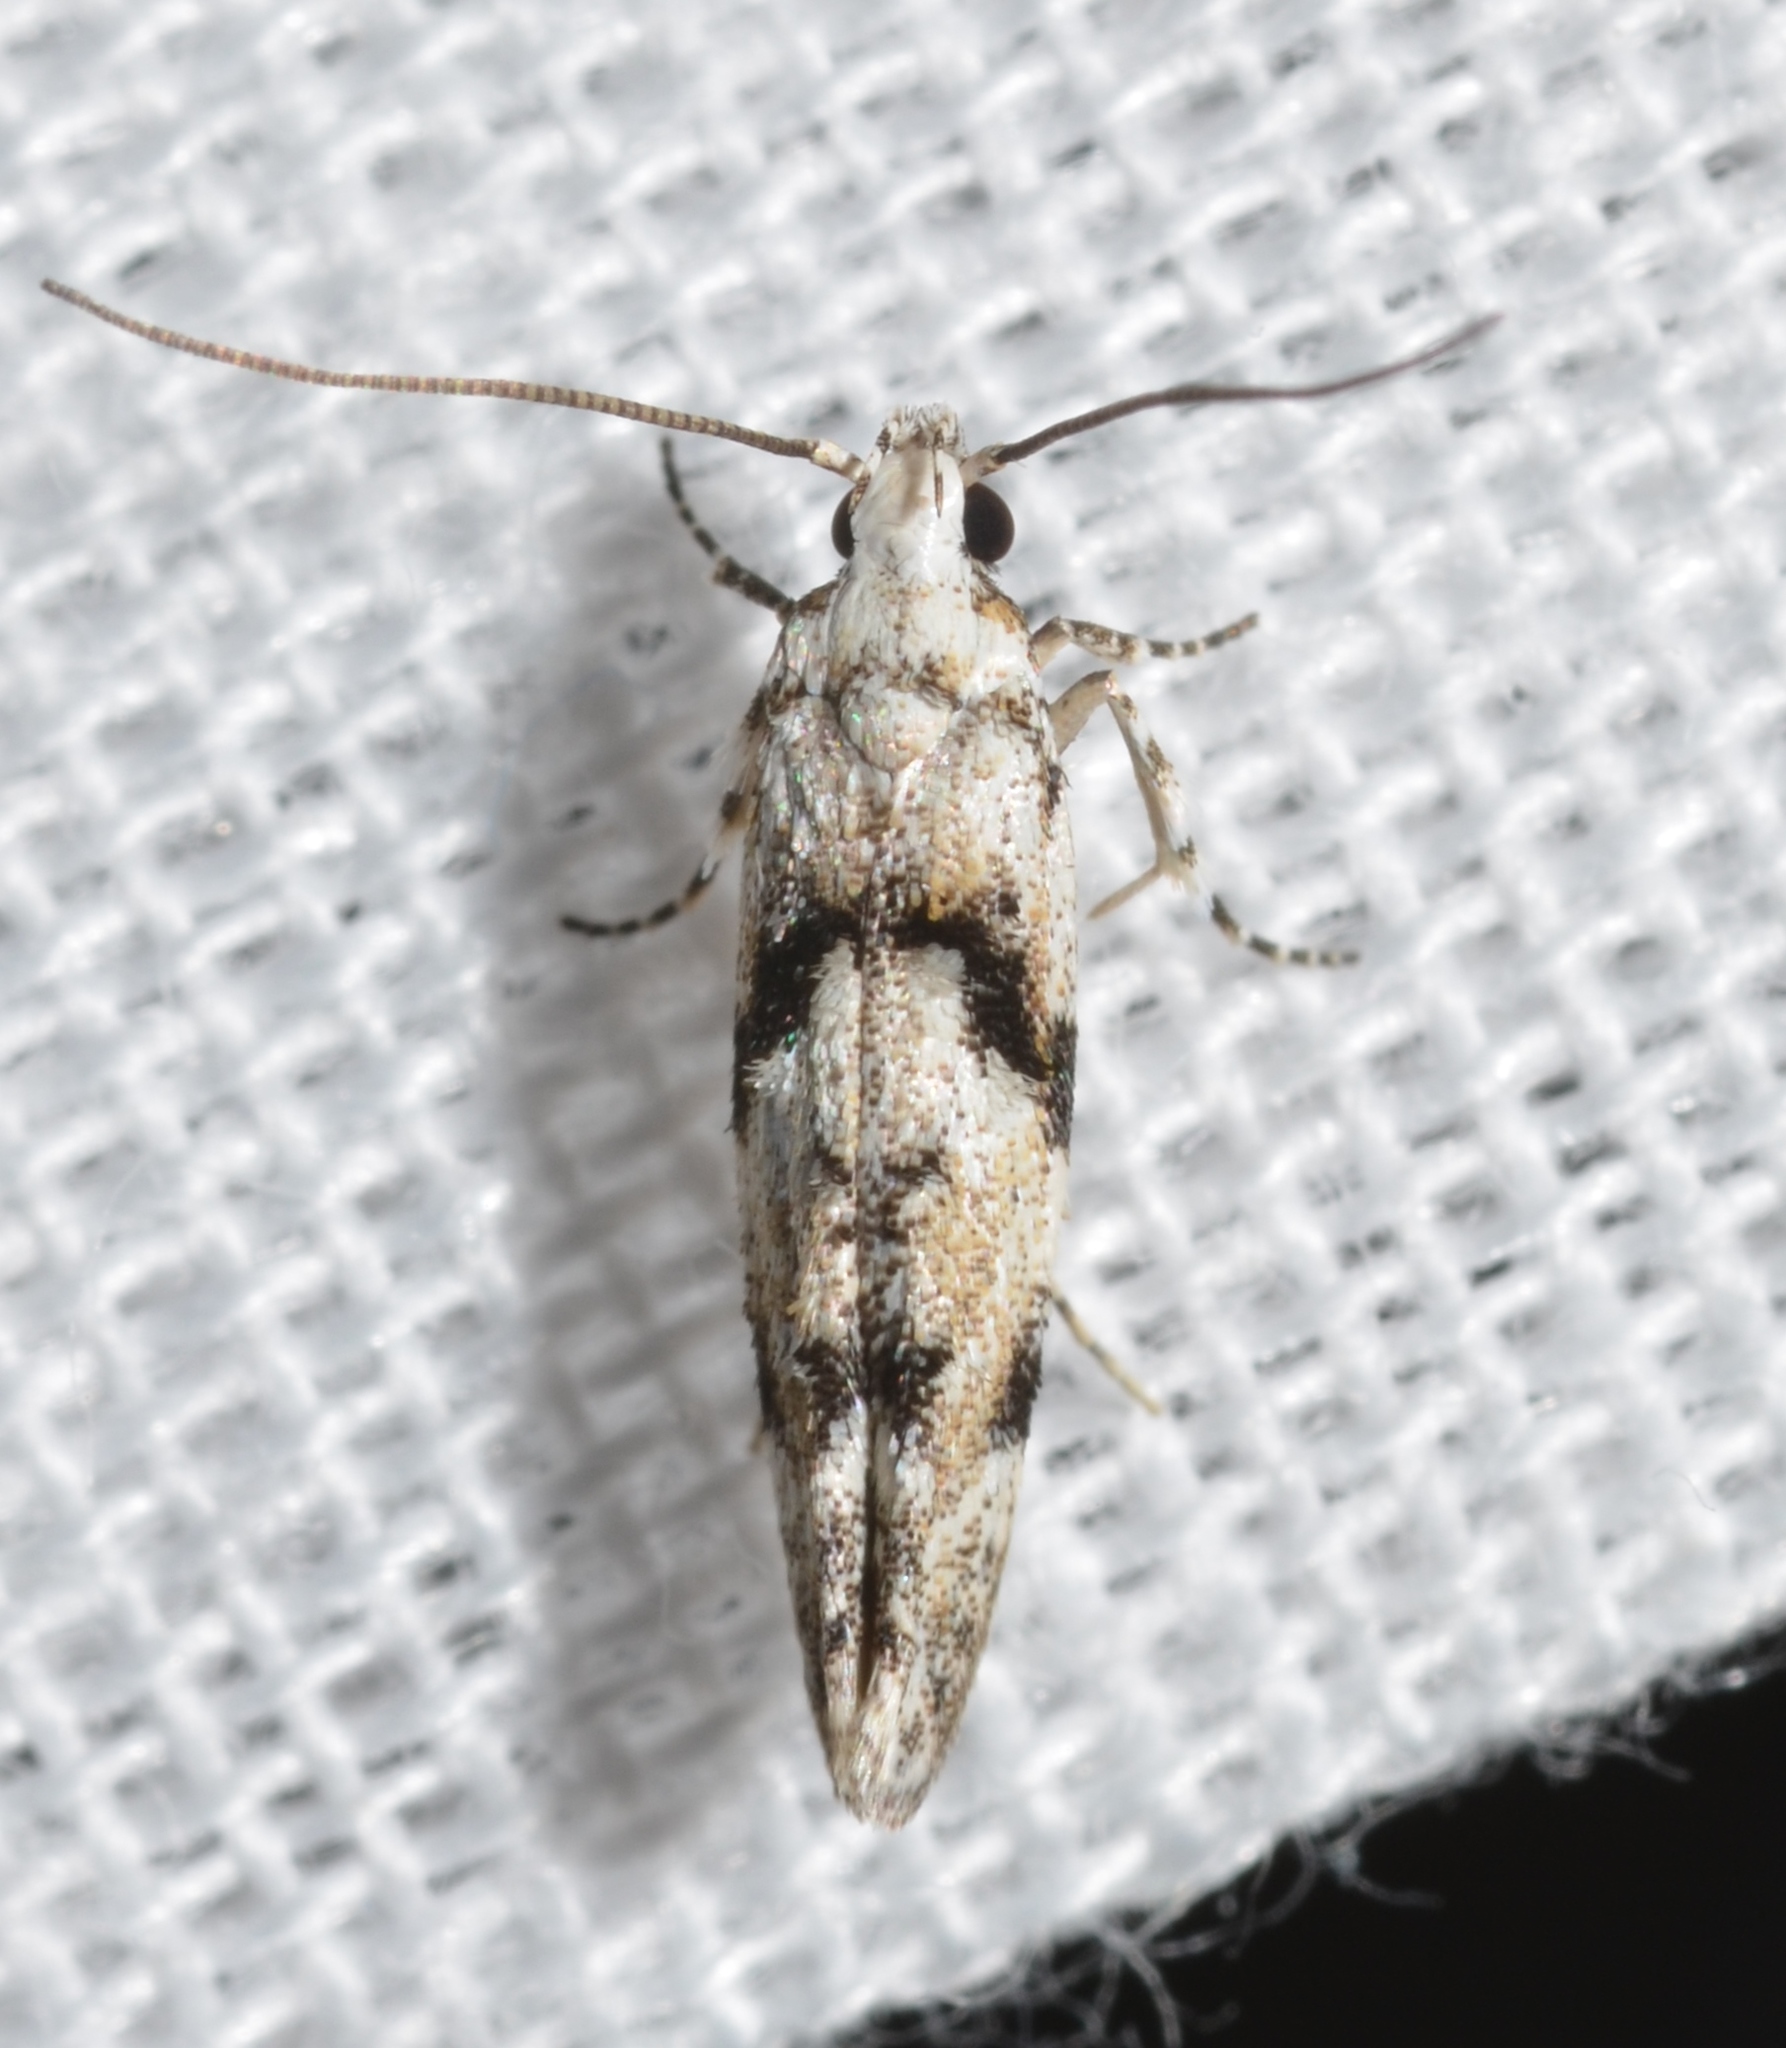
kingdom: Animalia
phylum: Arthropoda
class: Insecta
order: Lepidoptera
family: Gelechiidae
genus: Arogalea
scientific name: Arogalea cristifasciella
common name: White stripe-backed moth
